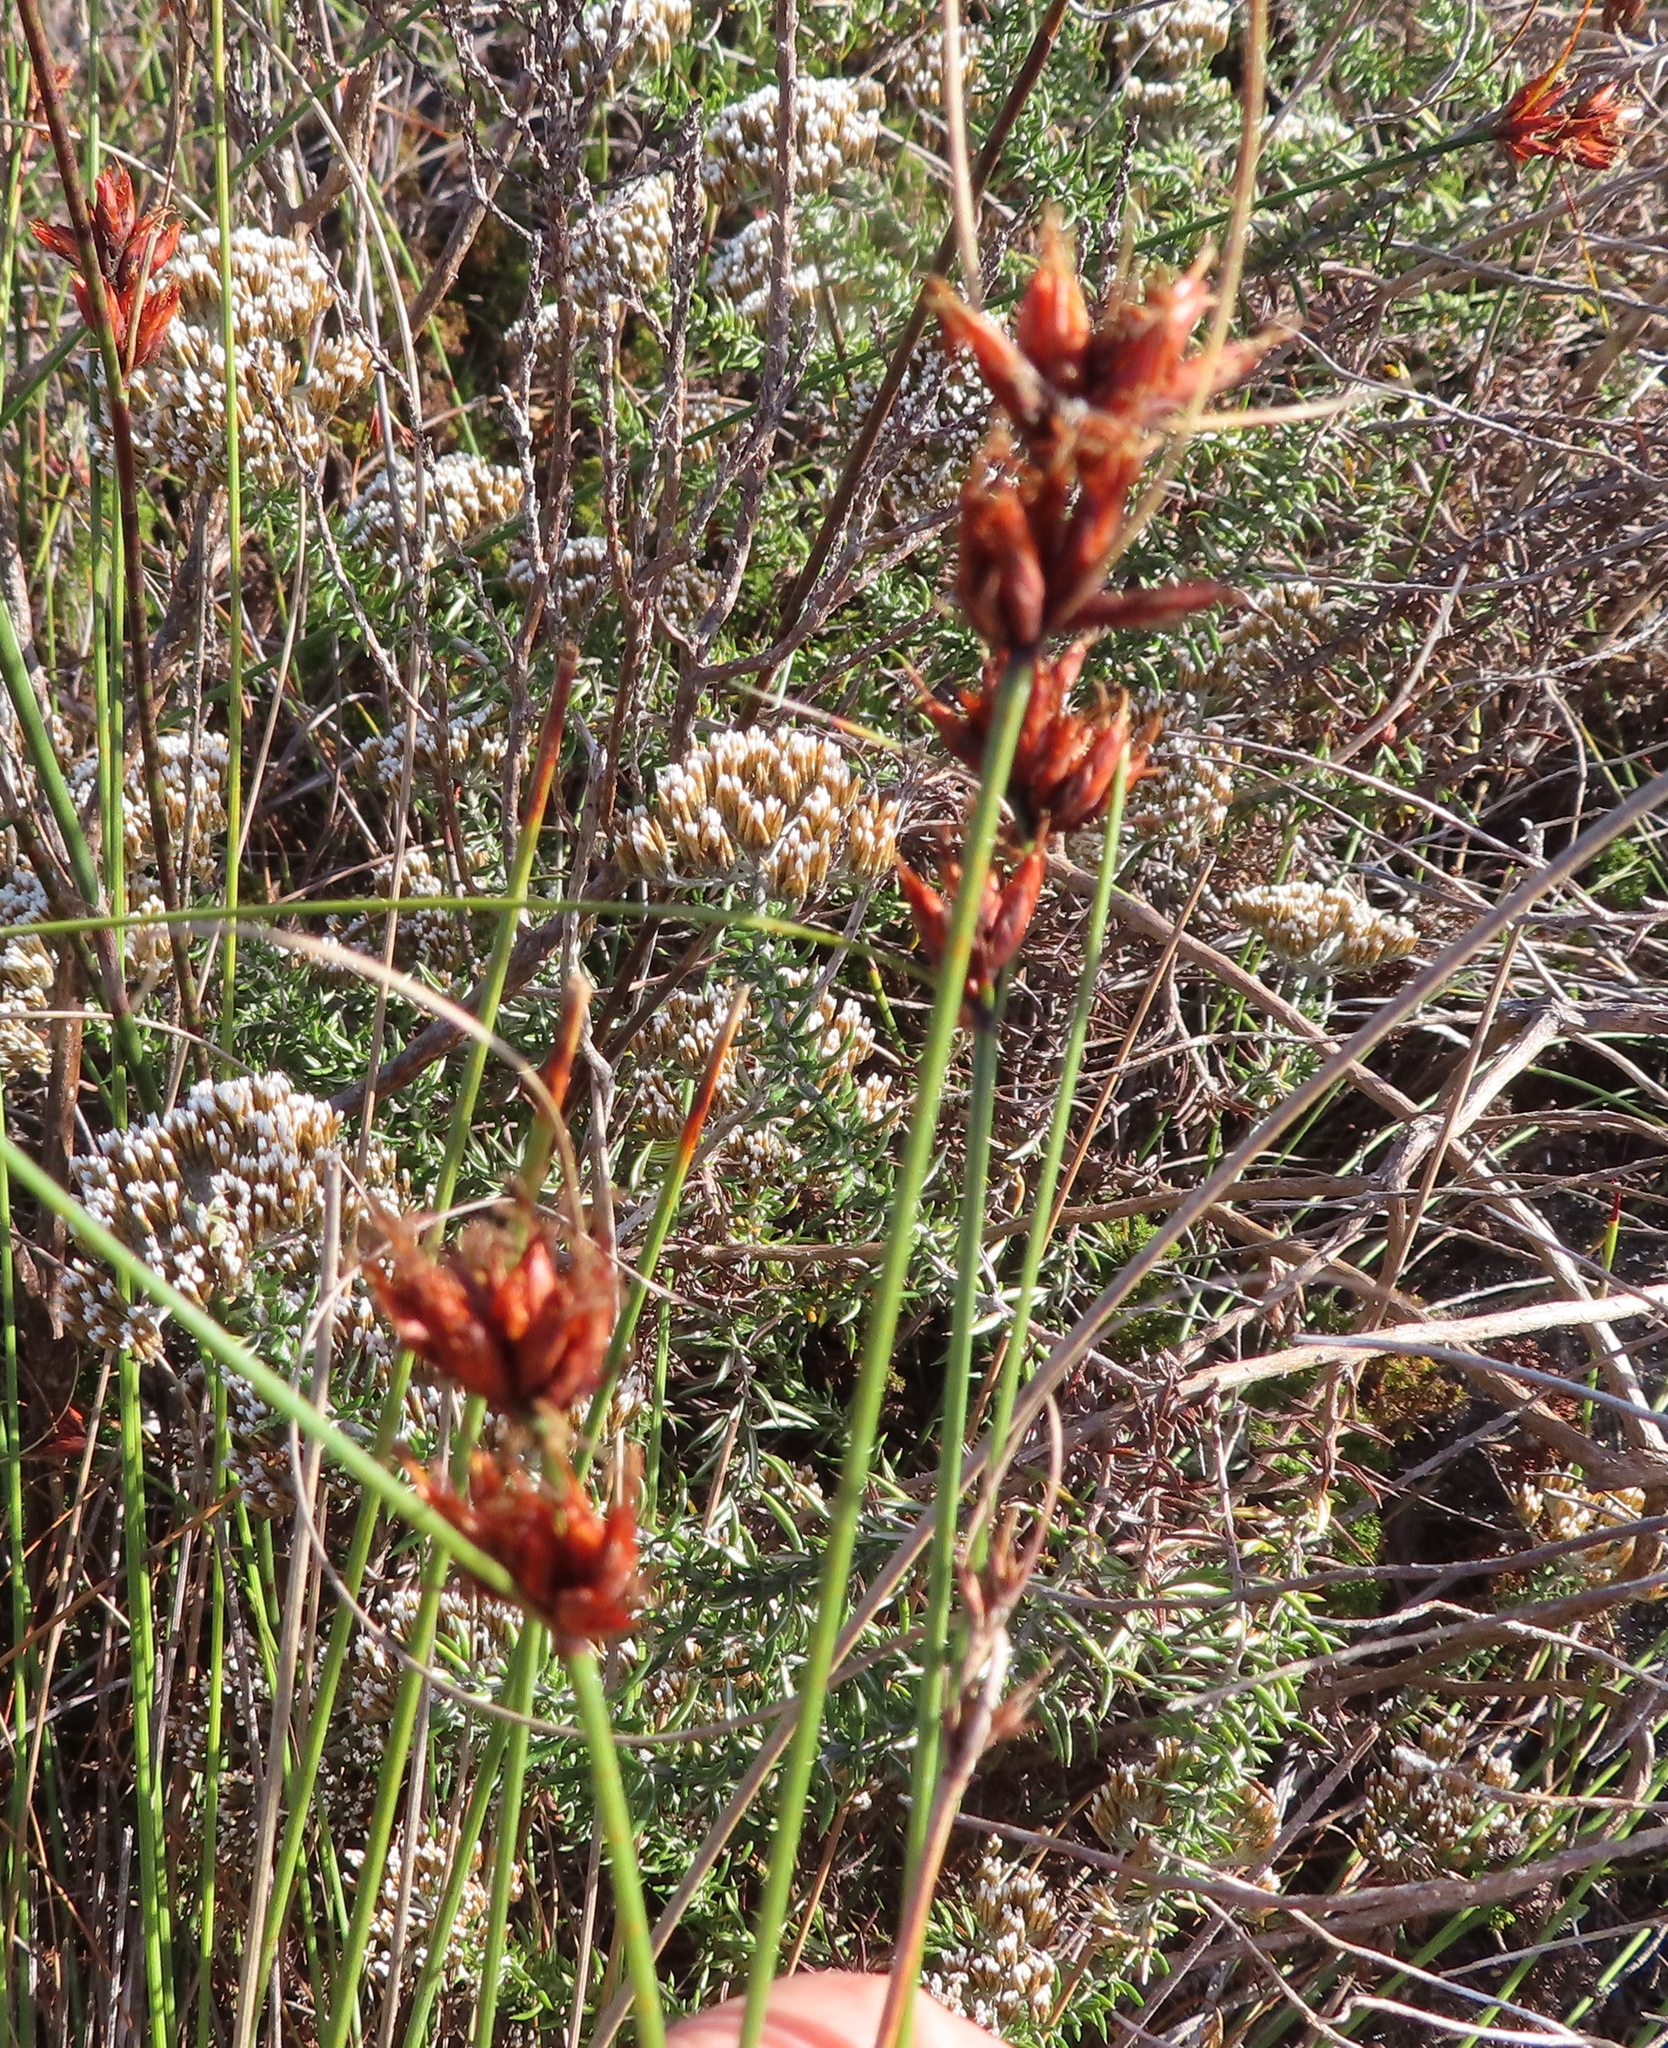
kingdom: Plantae
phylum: Tracheophyta
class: Liliopsida
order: Poales
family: Cyperaceae
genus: Schoenus
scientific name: Schoenus compar
